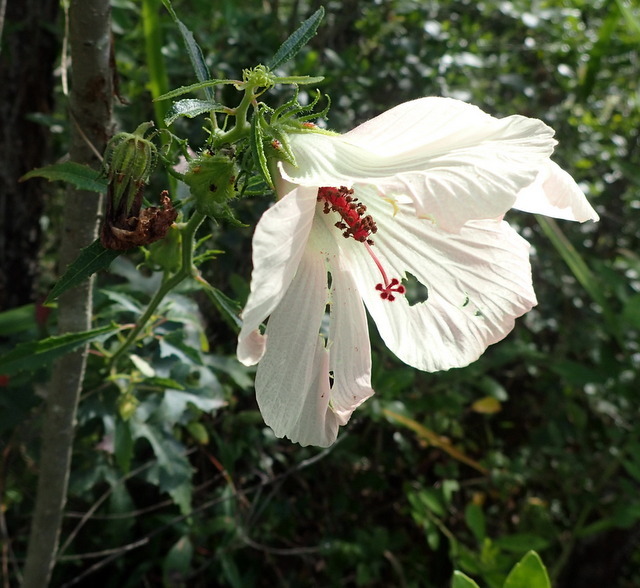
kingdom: Plantae
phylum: Tracheophyta
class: Magnoliopsida
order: Malvales
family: Malvaceae
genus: Hibiscus
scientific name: Hibiscus aculeatus
